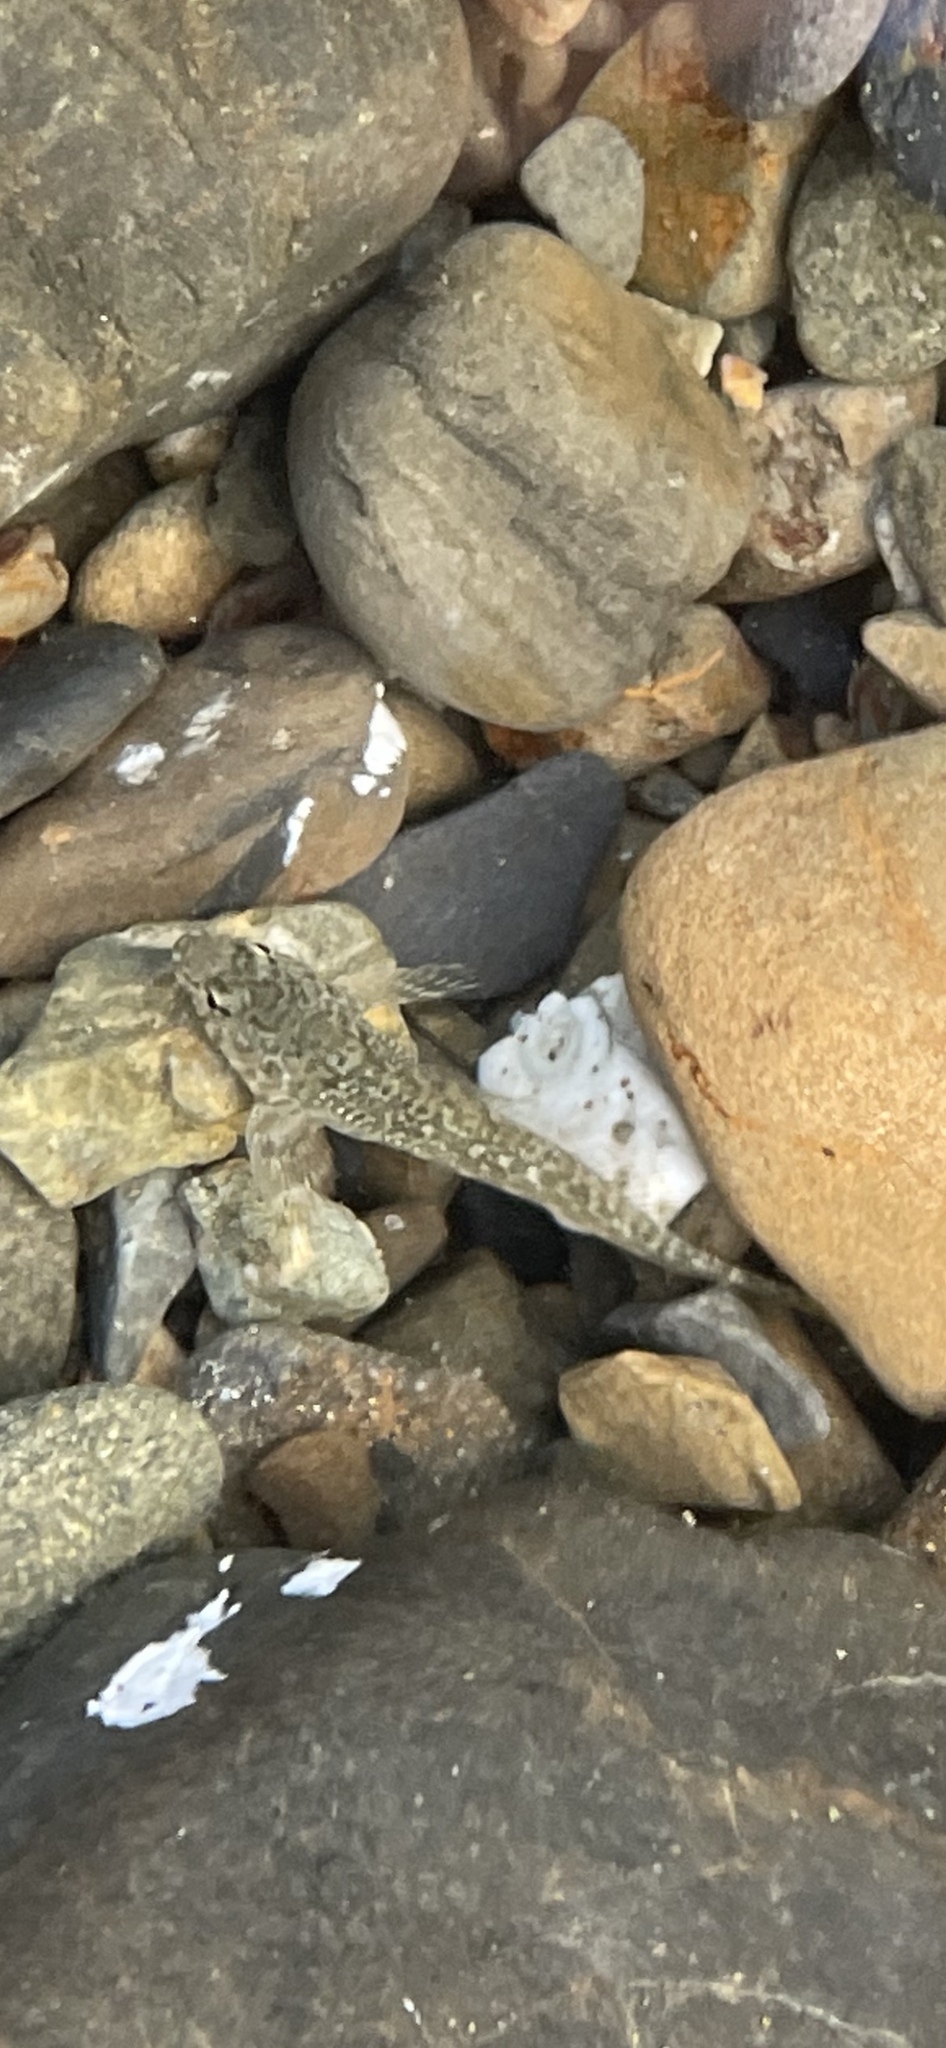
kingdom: Animalia
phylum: Chordata
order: Perciformes
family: Tripterygiidae
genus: Bellapiscis
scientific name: Bellapiscis medius
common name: Twister
